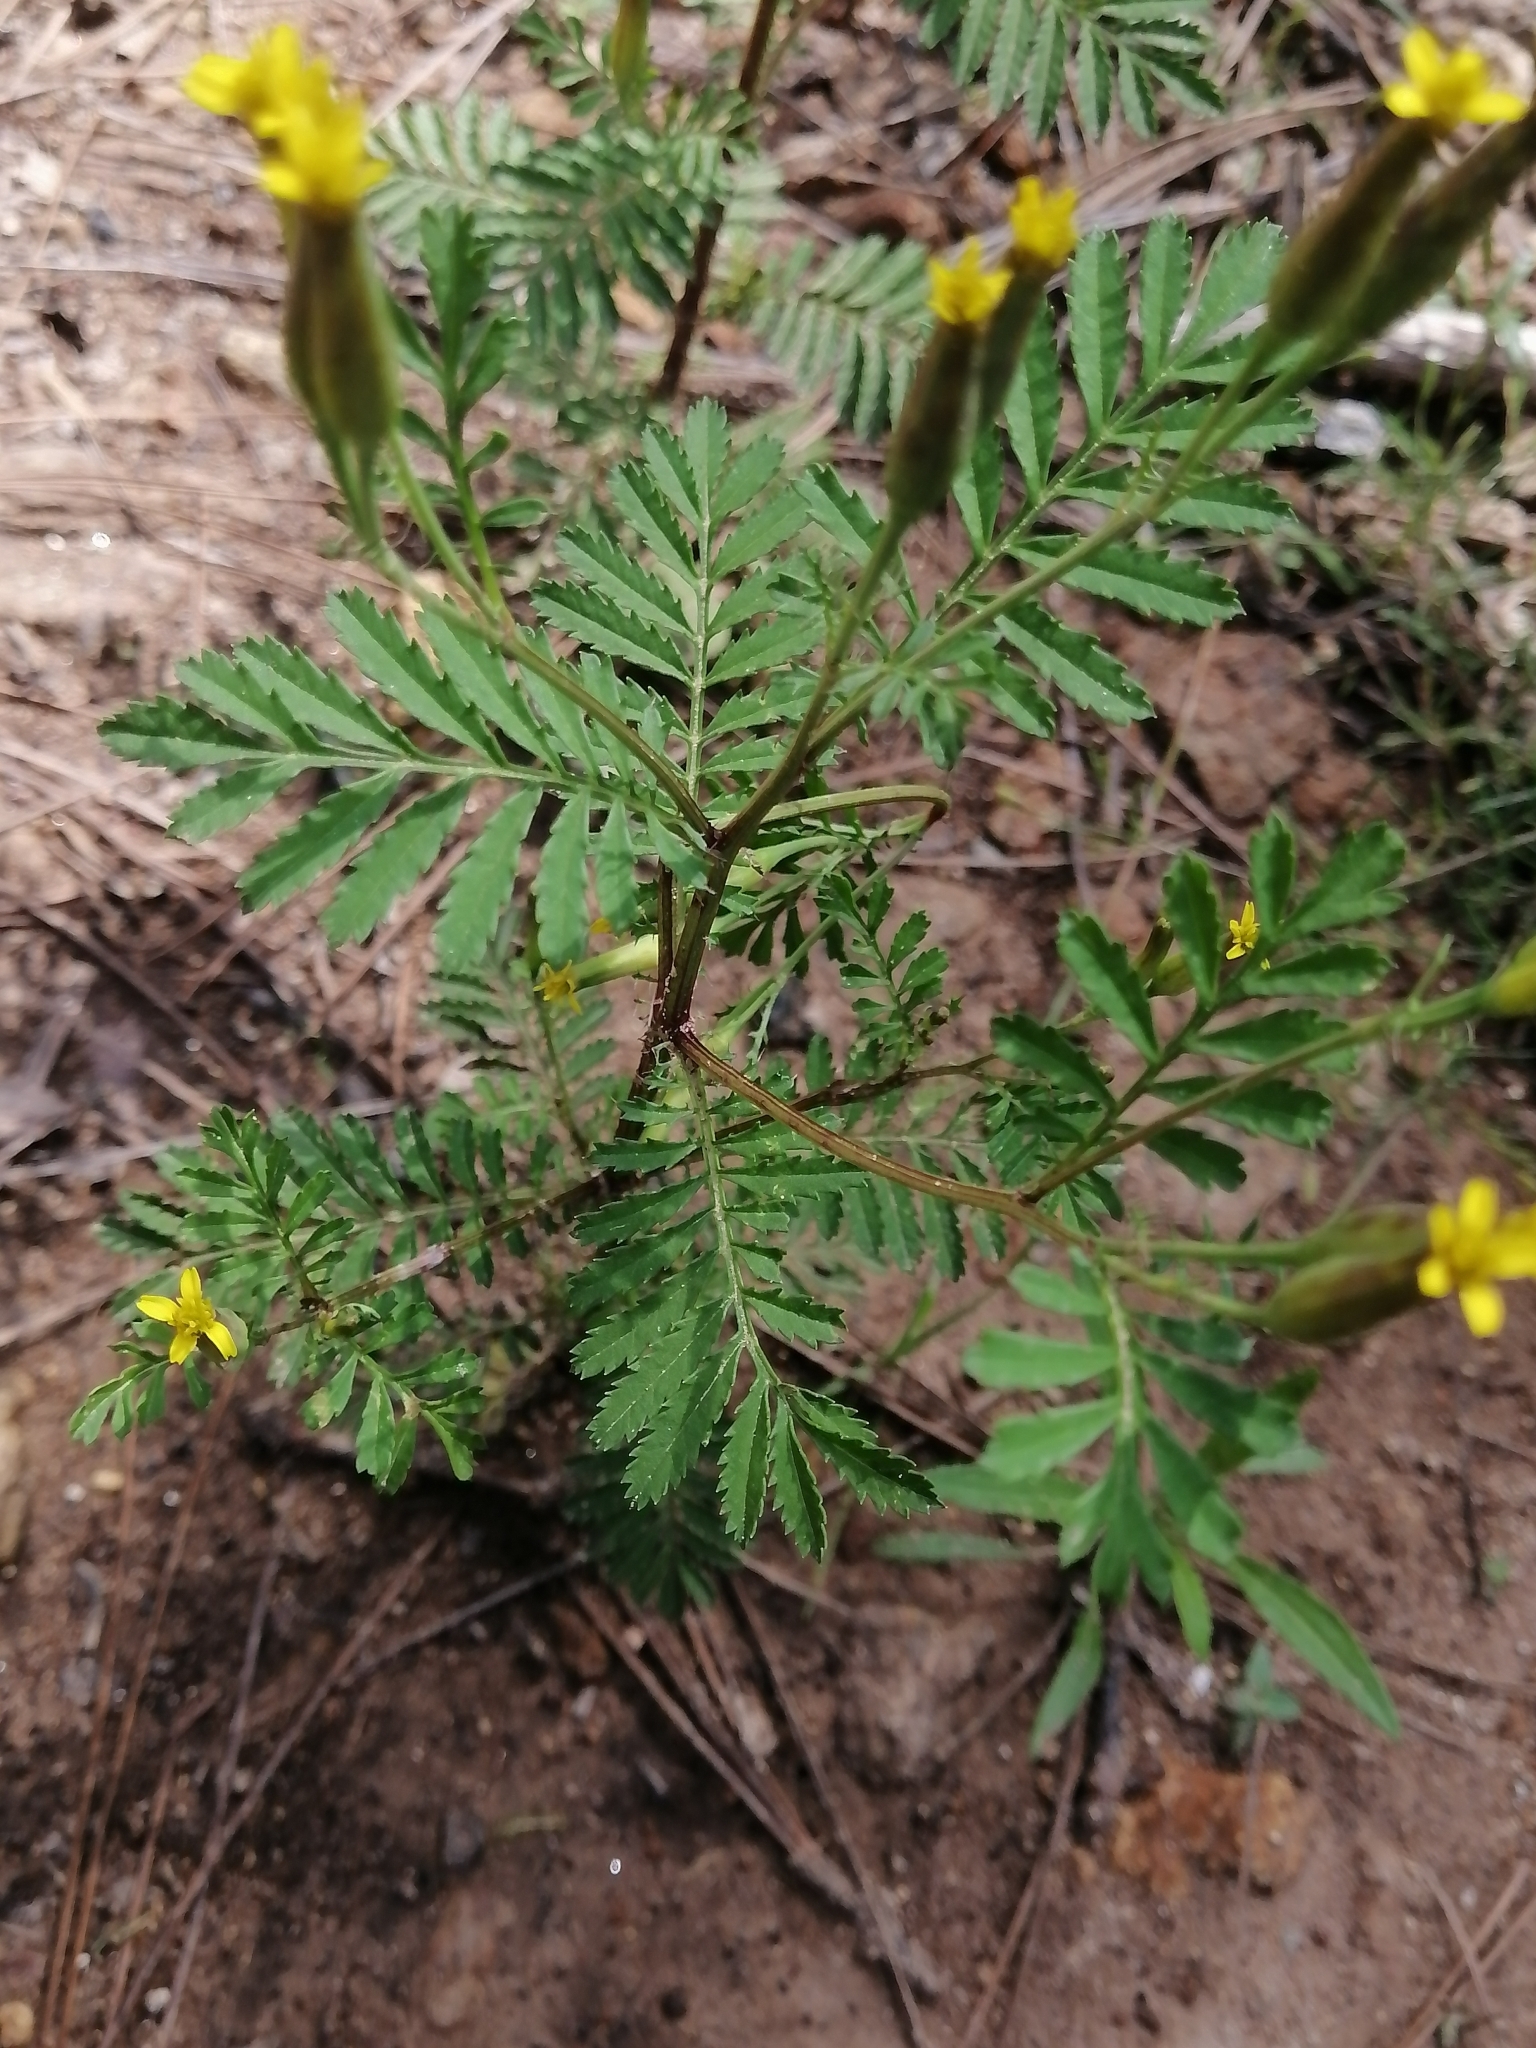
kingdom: Plantae
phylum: Tracheophyta
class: Magnoliopsida
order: Asterales
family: Asteraceae
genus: Tagetes
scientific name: Tagetes foetidissima
